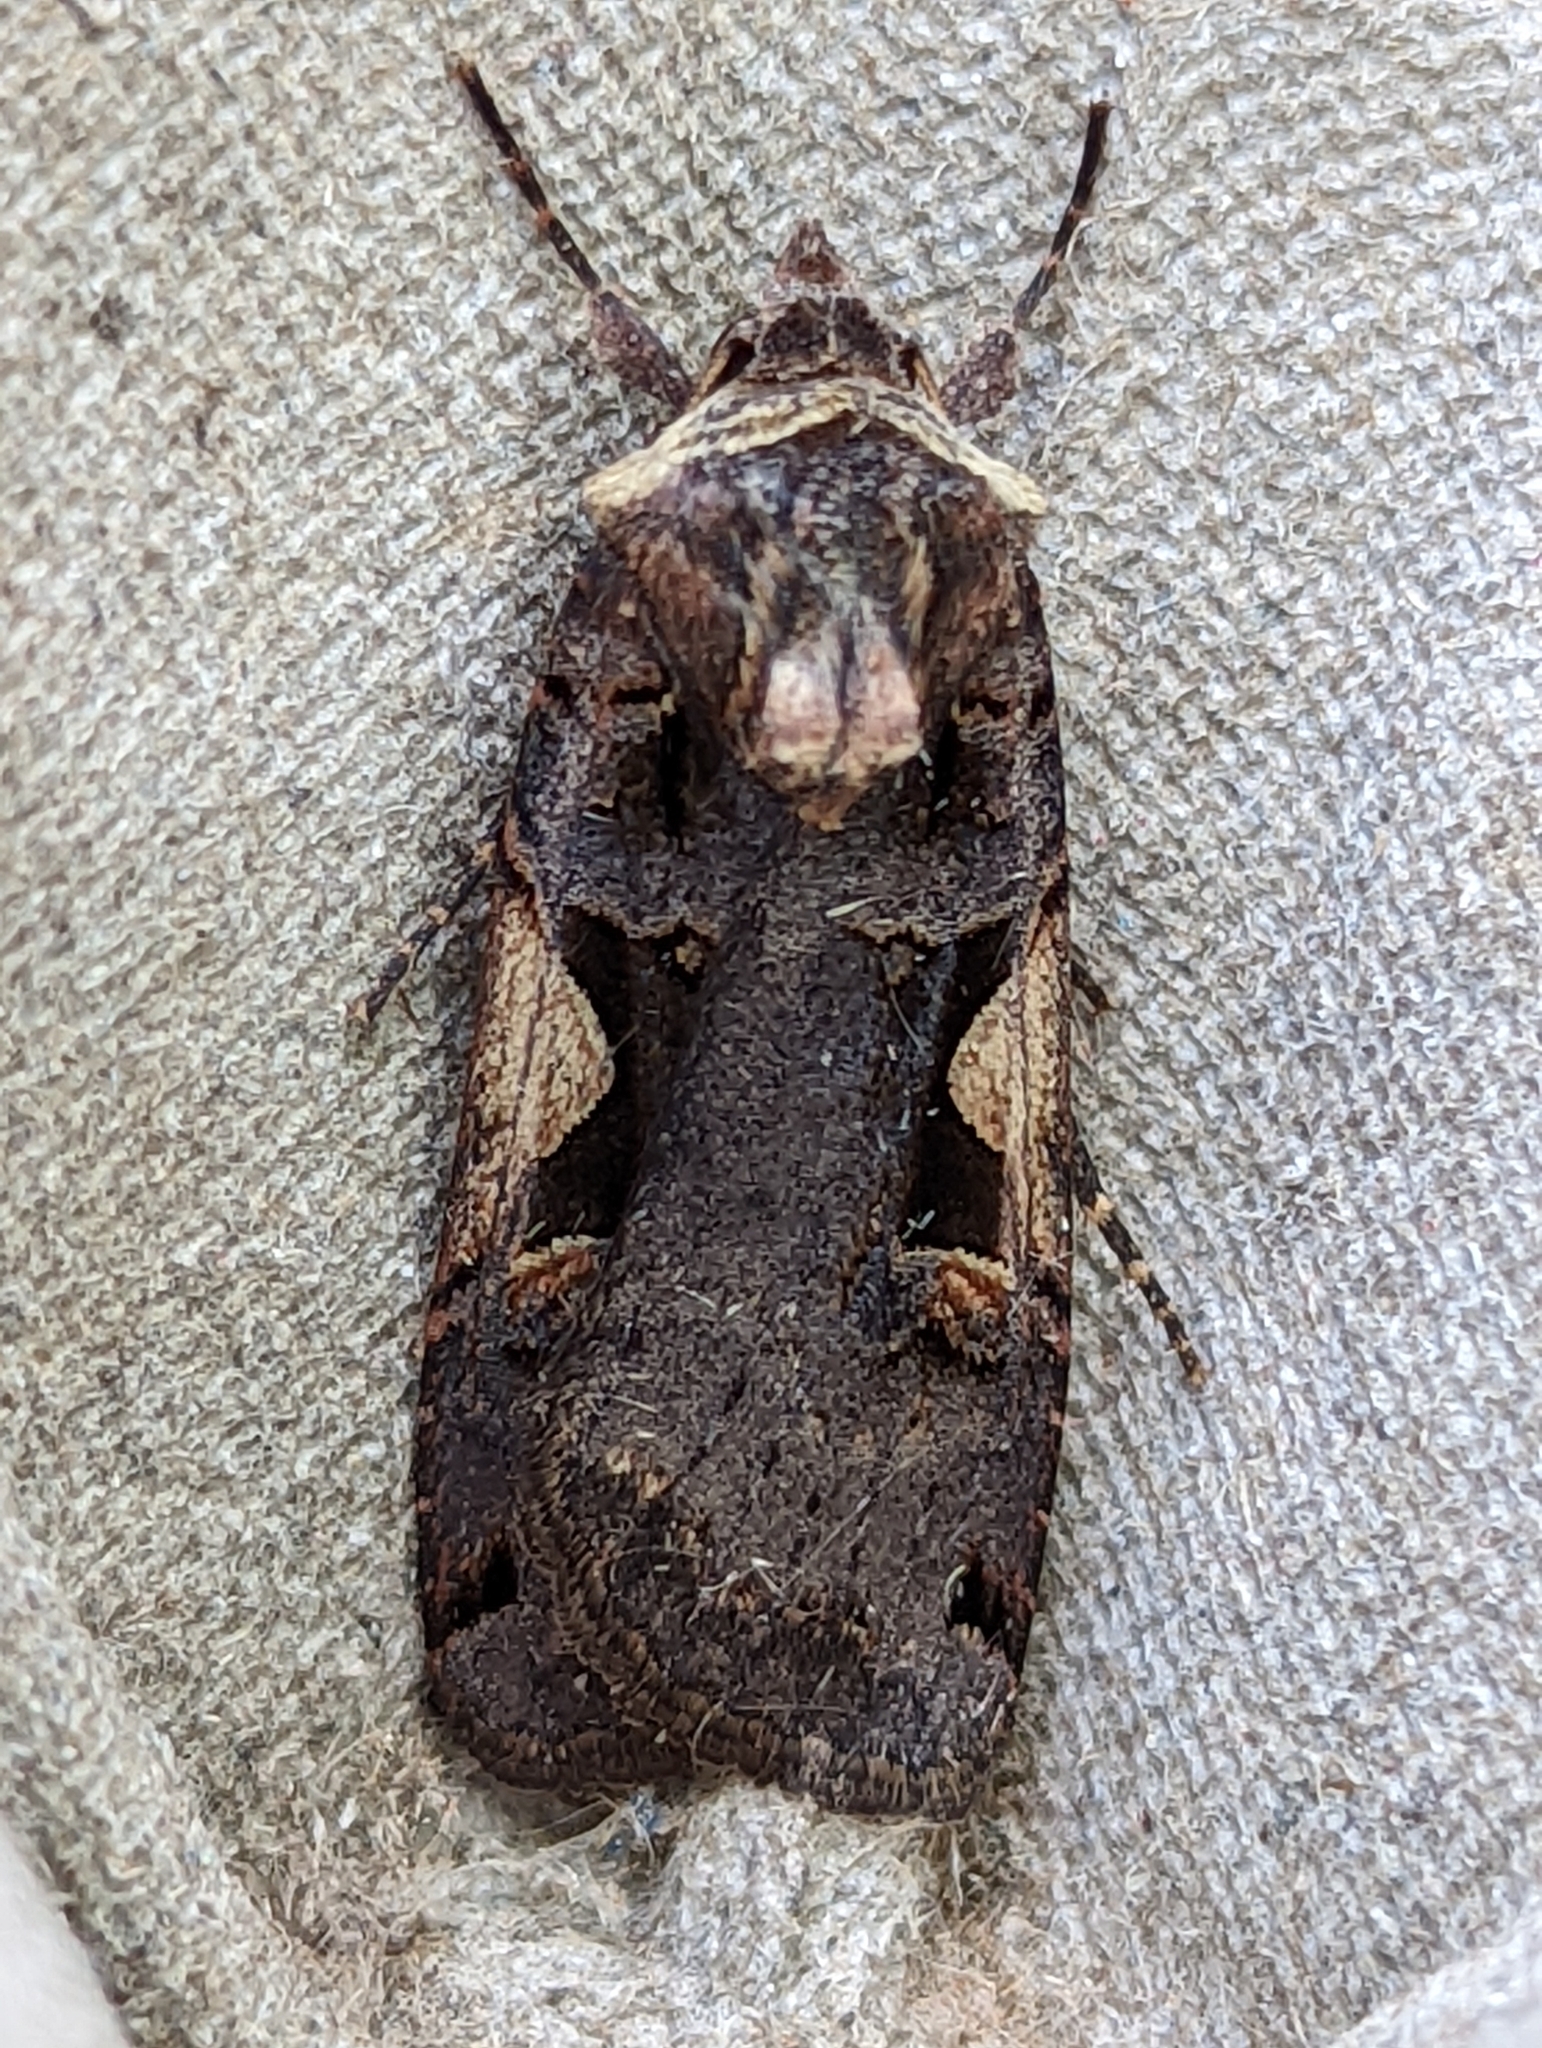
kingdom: Animalia
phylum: Arthropoda
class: Insecta
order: Lepidoptera
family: Noctuidae
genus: Xestia
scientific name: Xestia c-nigrum
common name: Setaceous hebrew character
